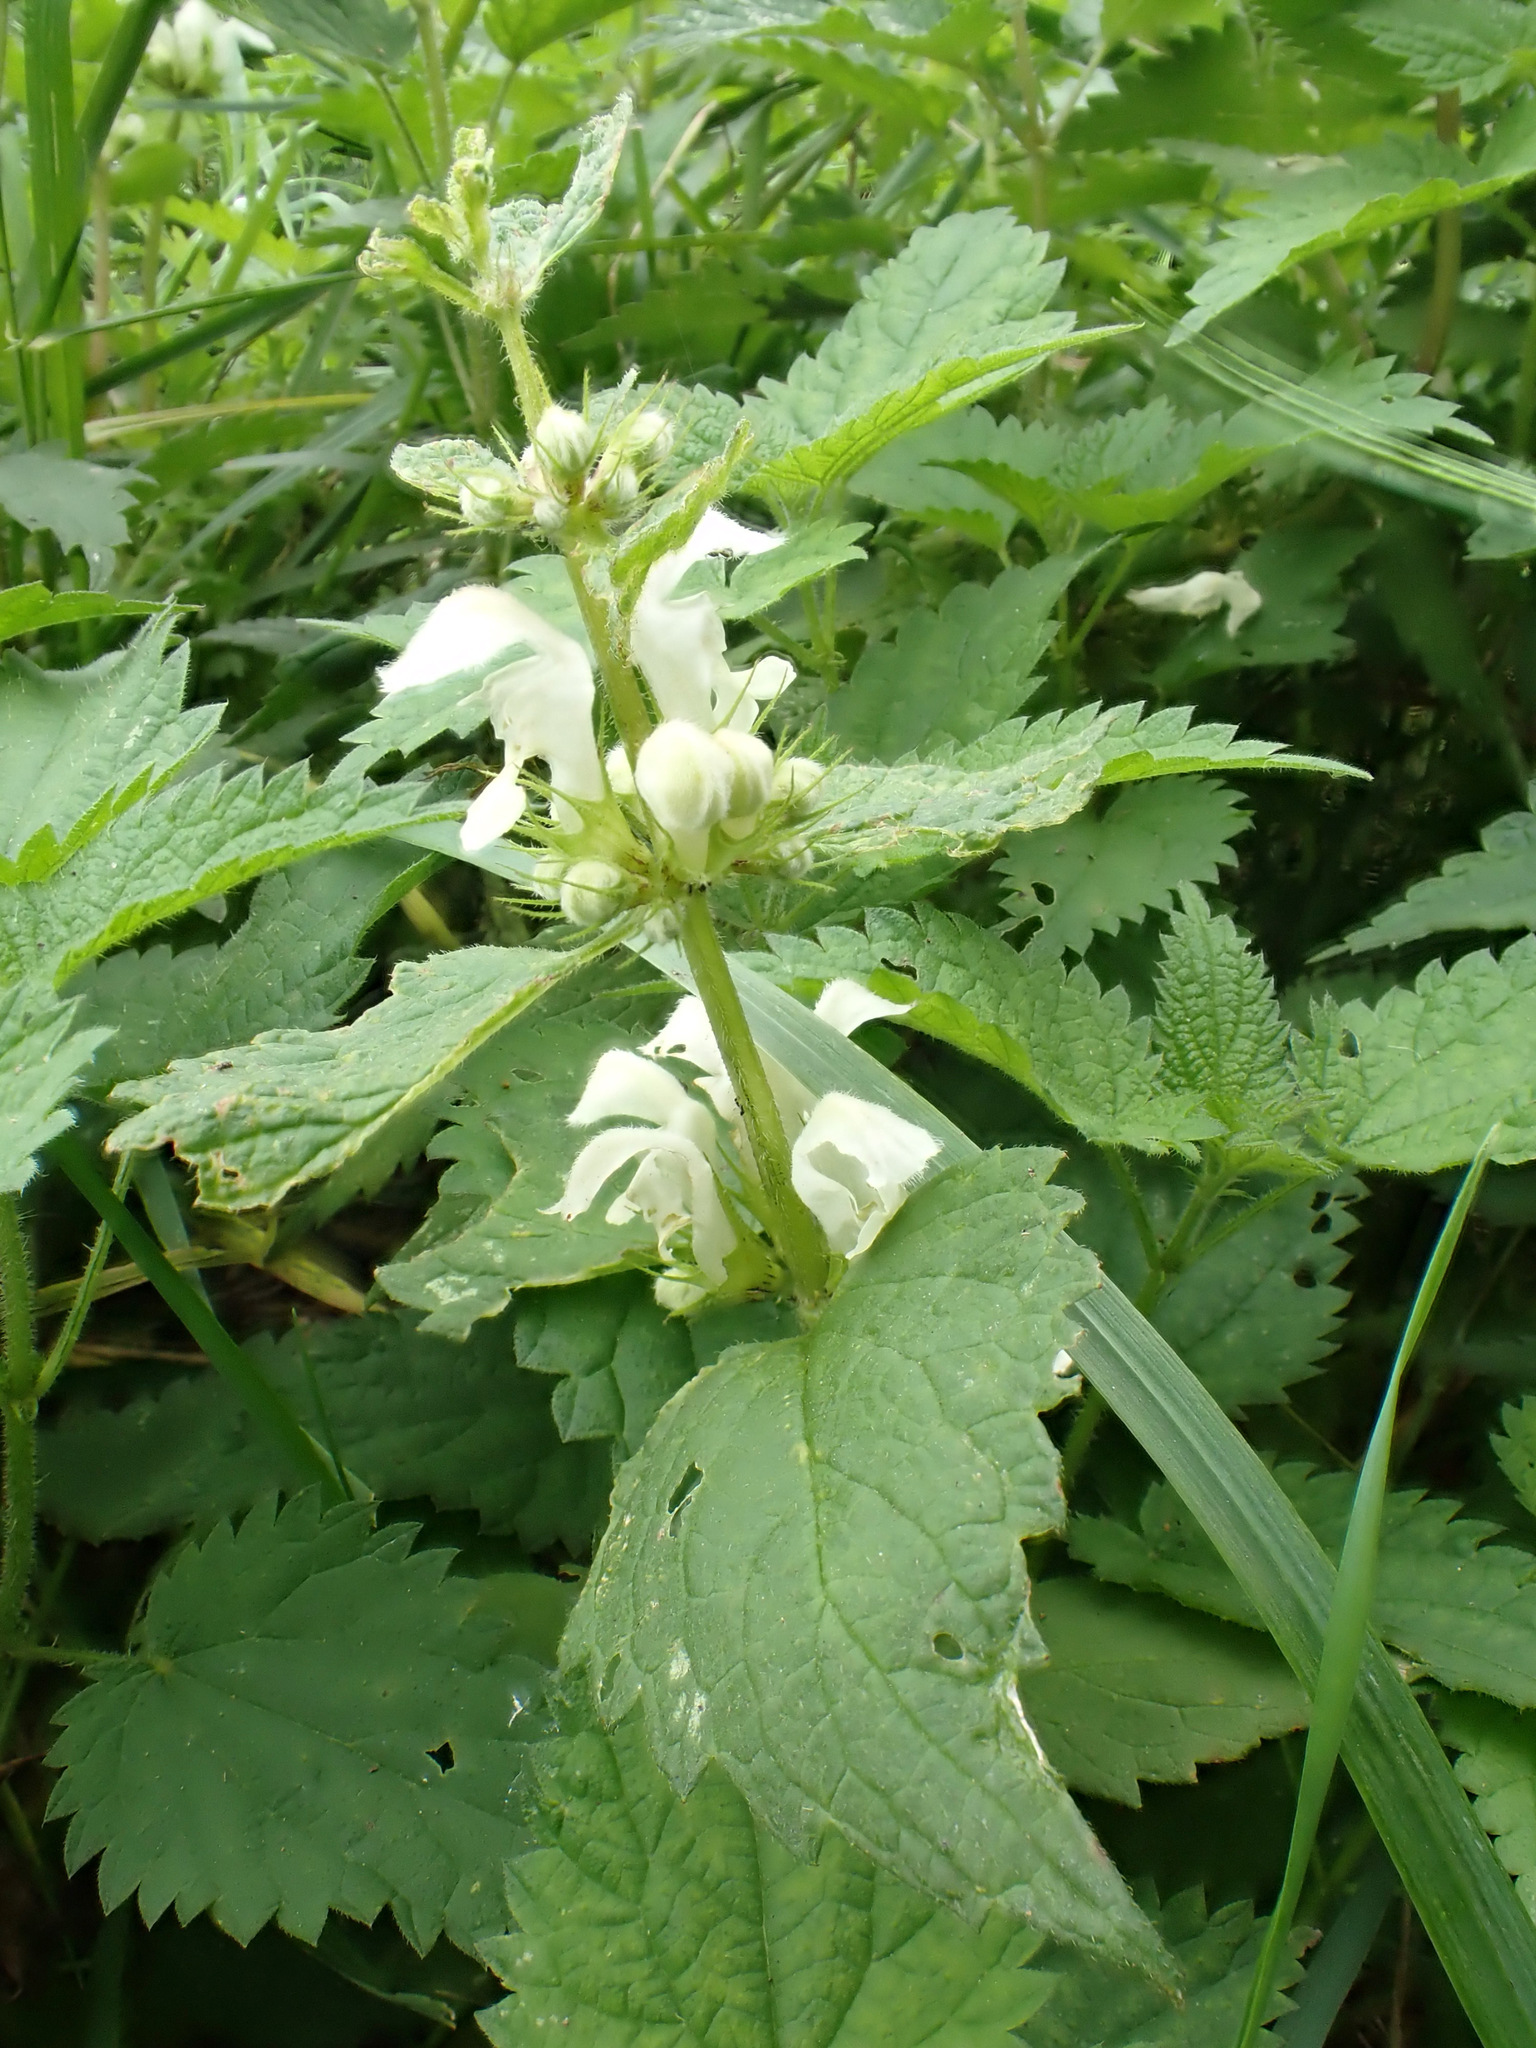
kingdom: Plantae
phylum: Tracheophyta
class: Magnoliopsida
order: Lamiales
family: Lamiaceae
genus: Lamium
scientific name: Lamium album
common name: White dead-nettle
